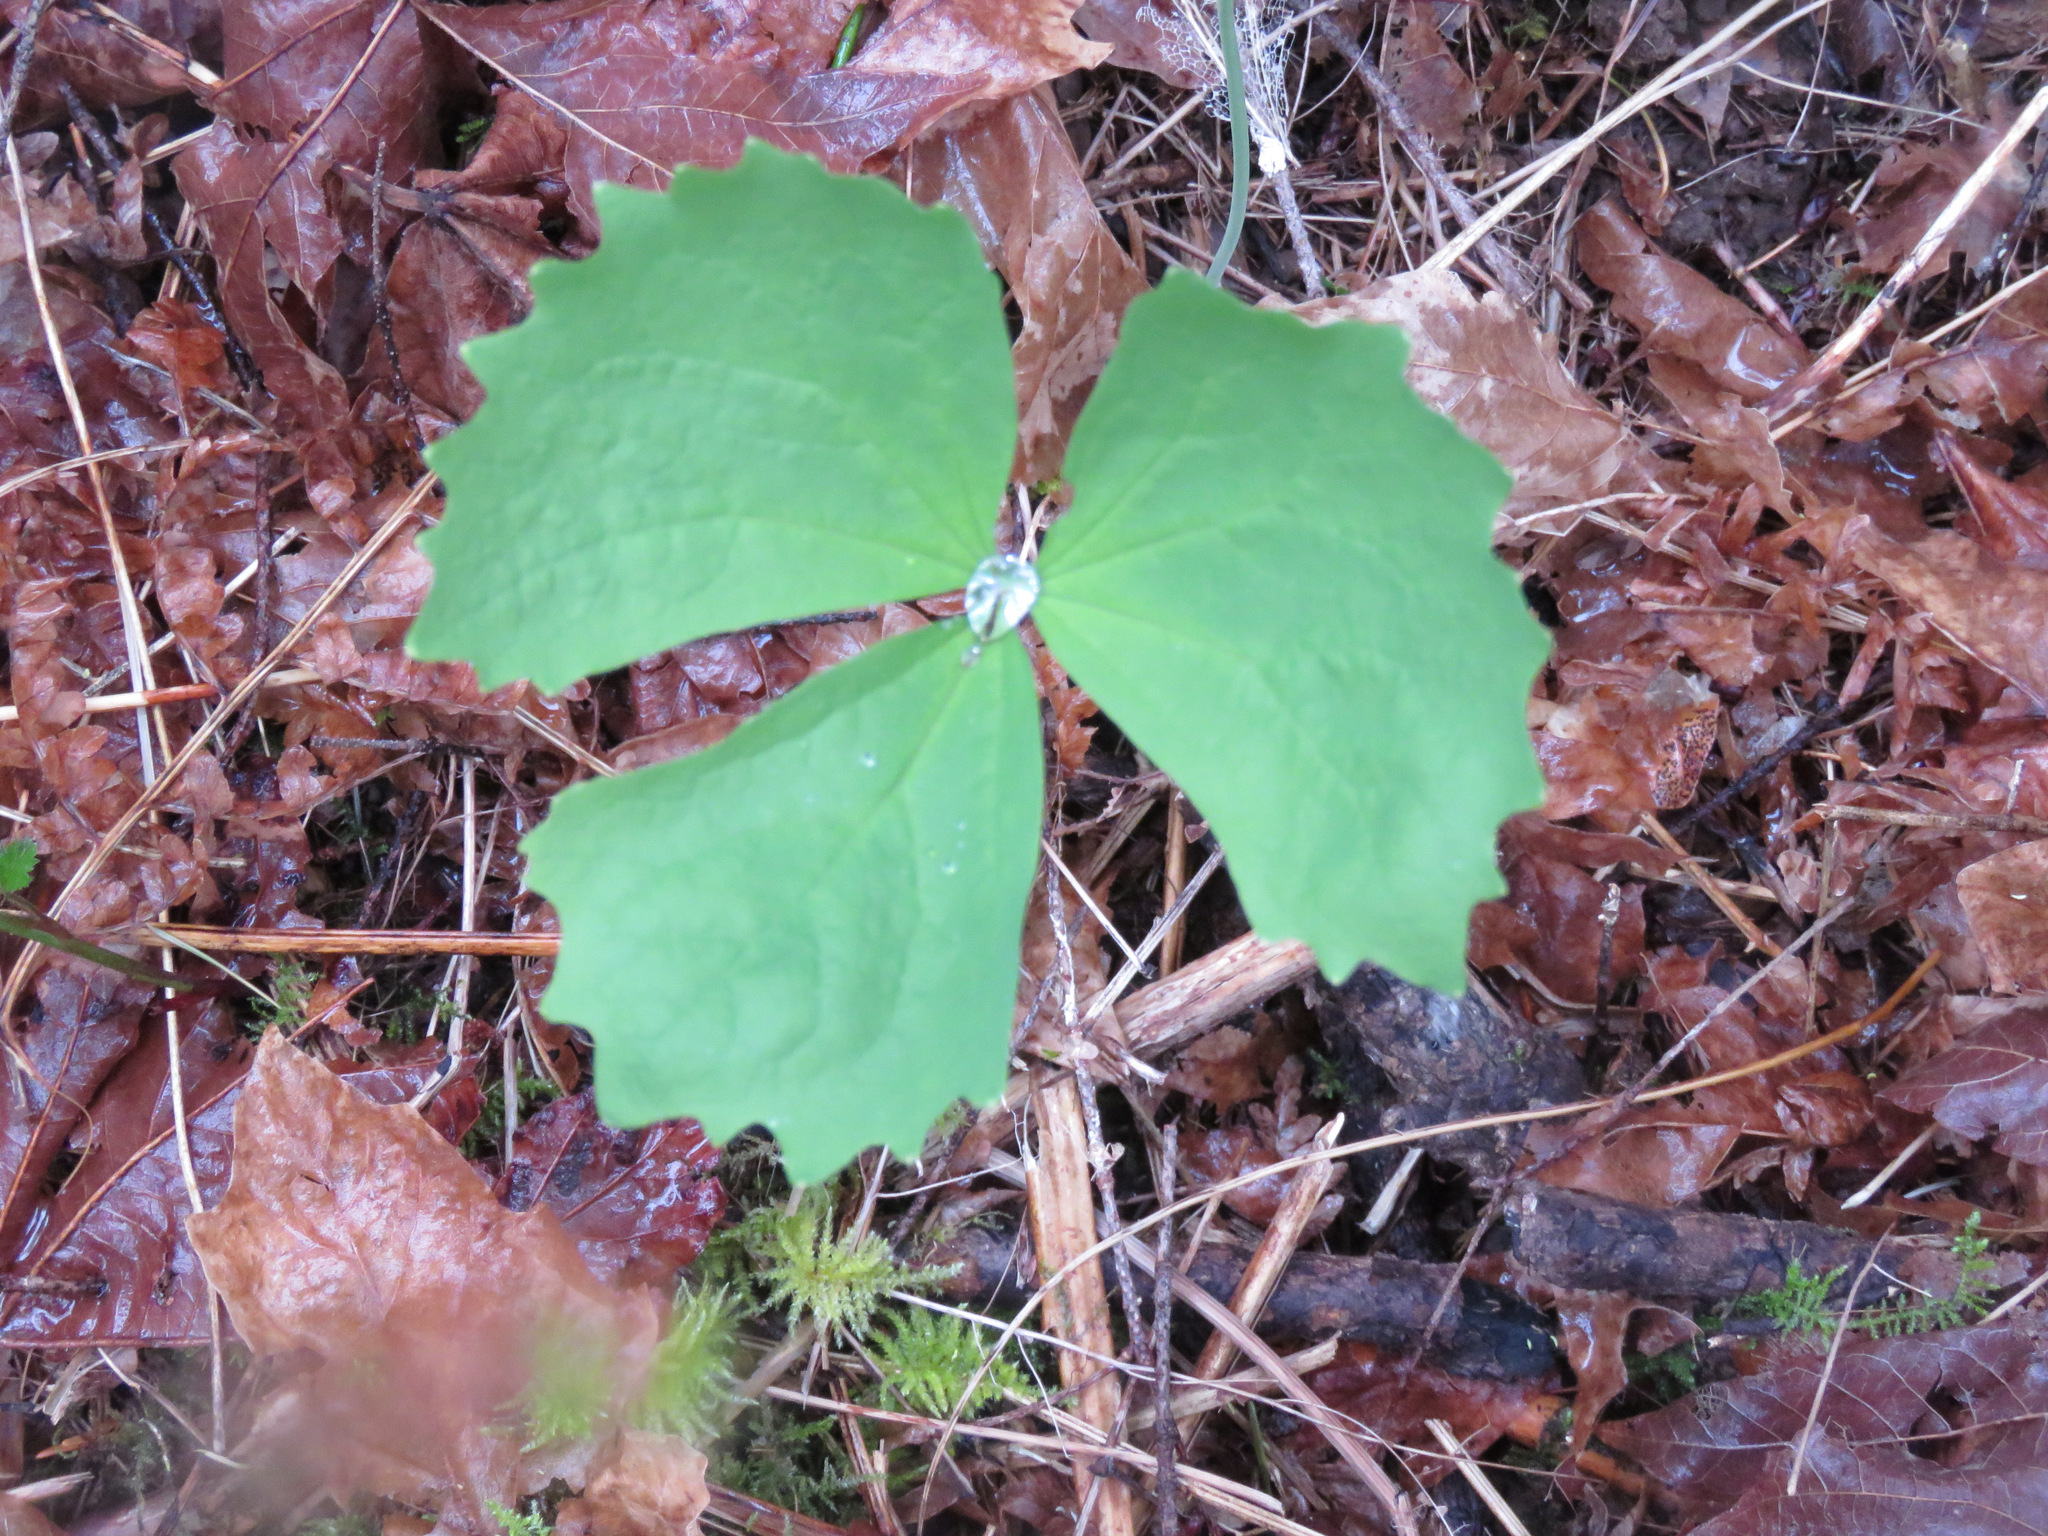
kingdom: Plantae
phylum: Tracheophyta
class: Magnoliopsida
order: Ranunculales
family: Berberidaceae
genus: Achlys
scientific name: Achlys triphylla
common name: Vanilla-leaf
